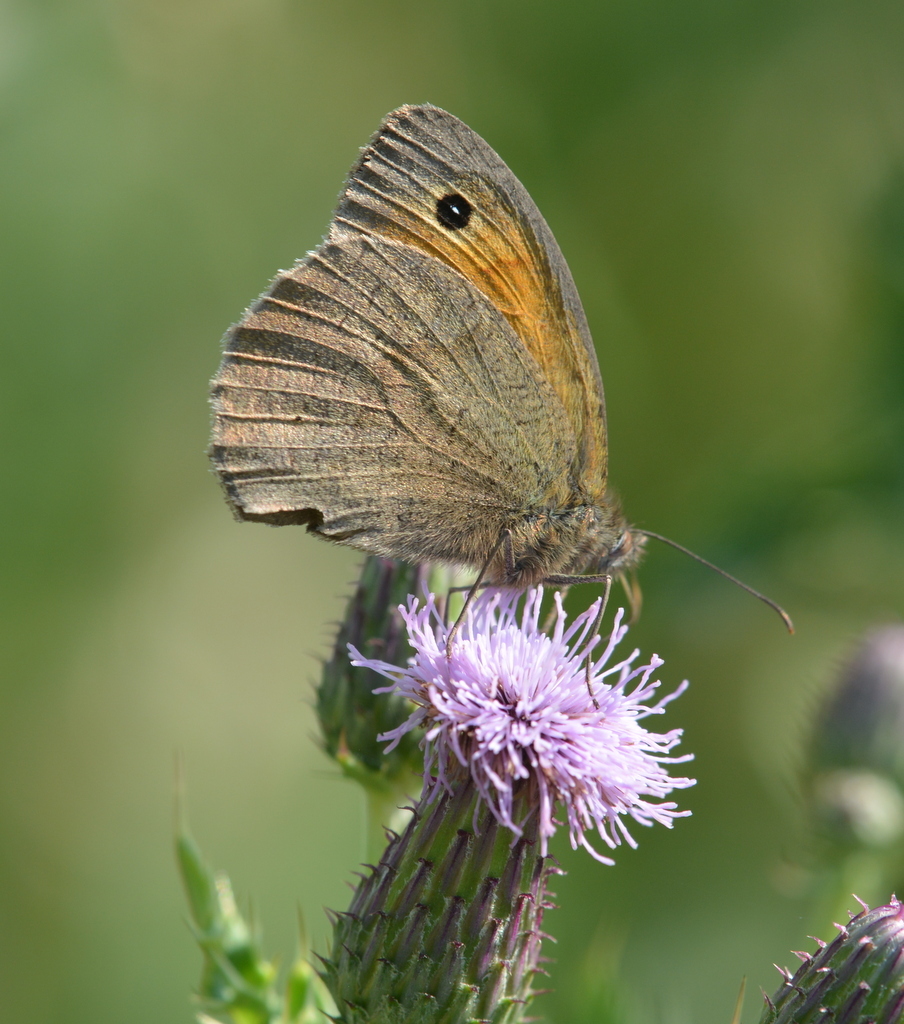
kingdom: Animalia
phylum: Arthropoda
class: Insecta
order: Lepidoptera
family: Nymphalidae
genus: Maniola
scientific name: Maniola jurtina
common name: Meadow brown
